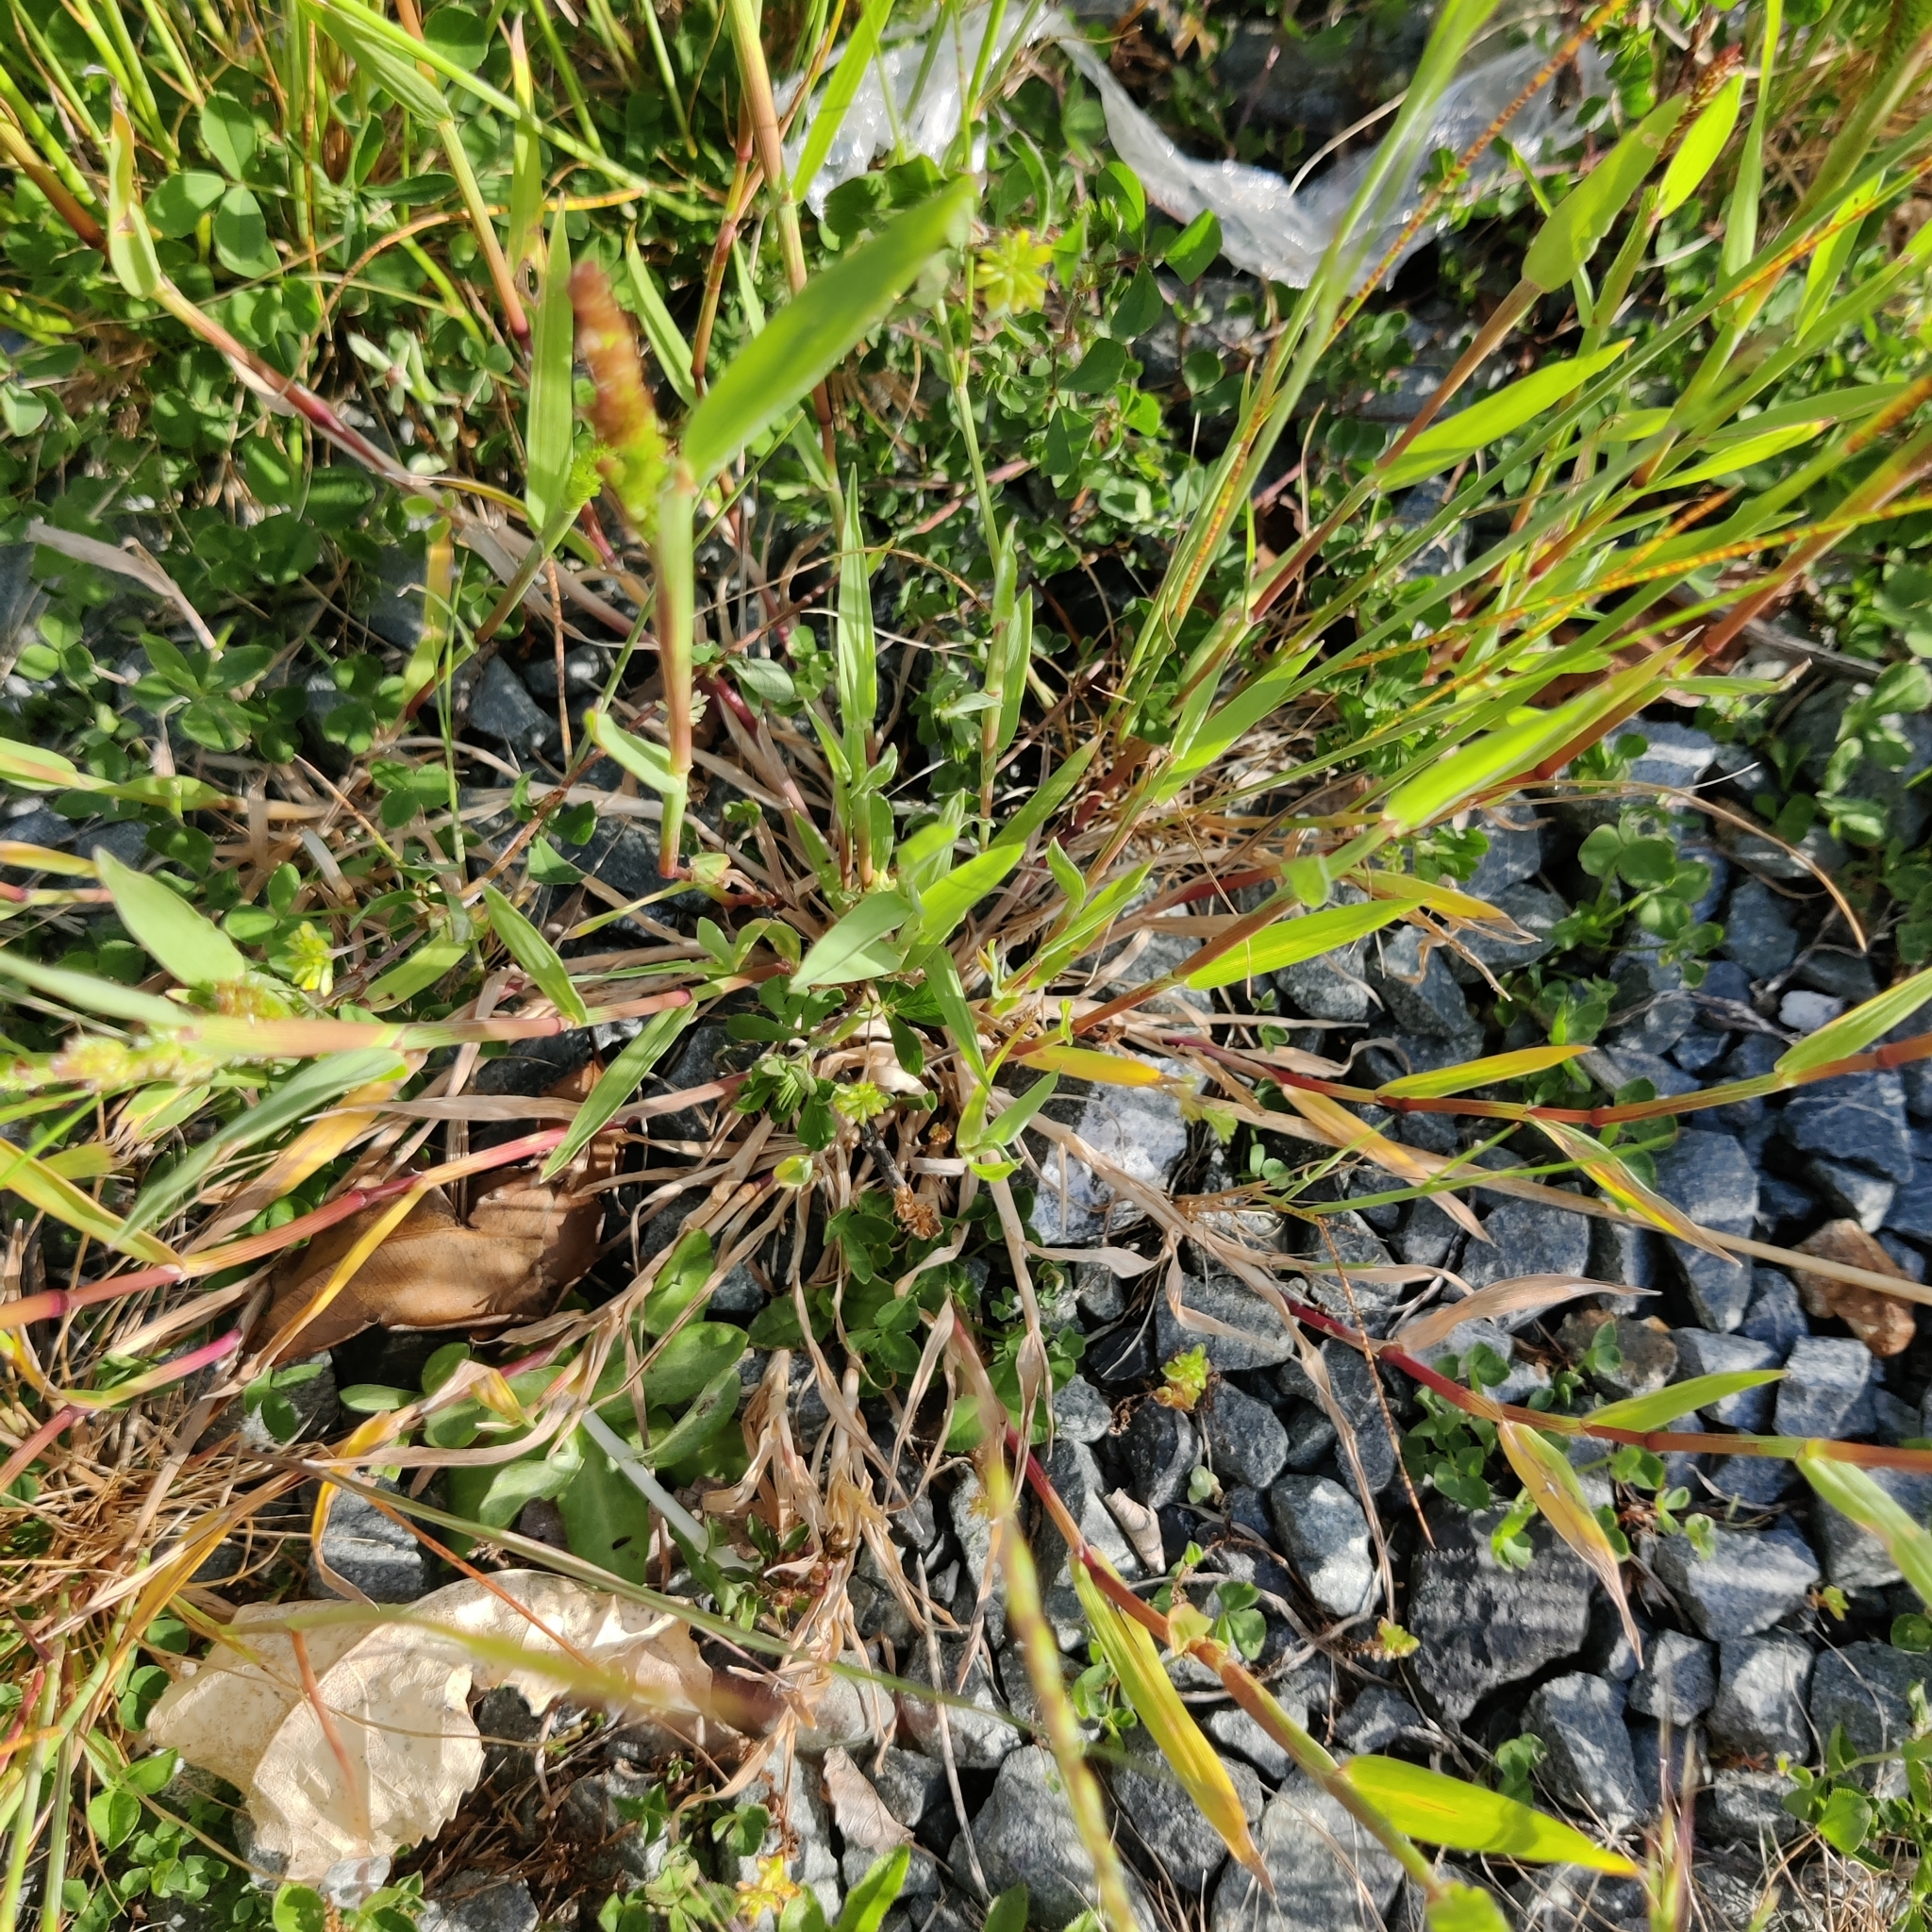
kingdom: Plantae
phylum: Tracheophyta
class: Liliopsida
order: Poales
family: Poaceae
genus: Polypogon
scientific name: Polypogon viridis
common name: Water bent
